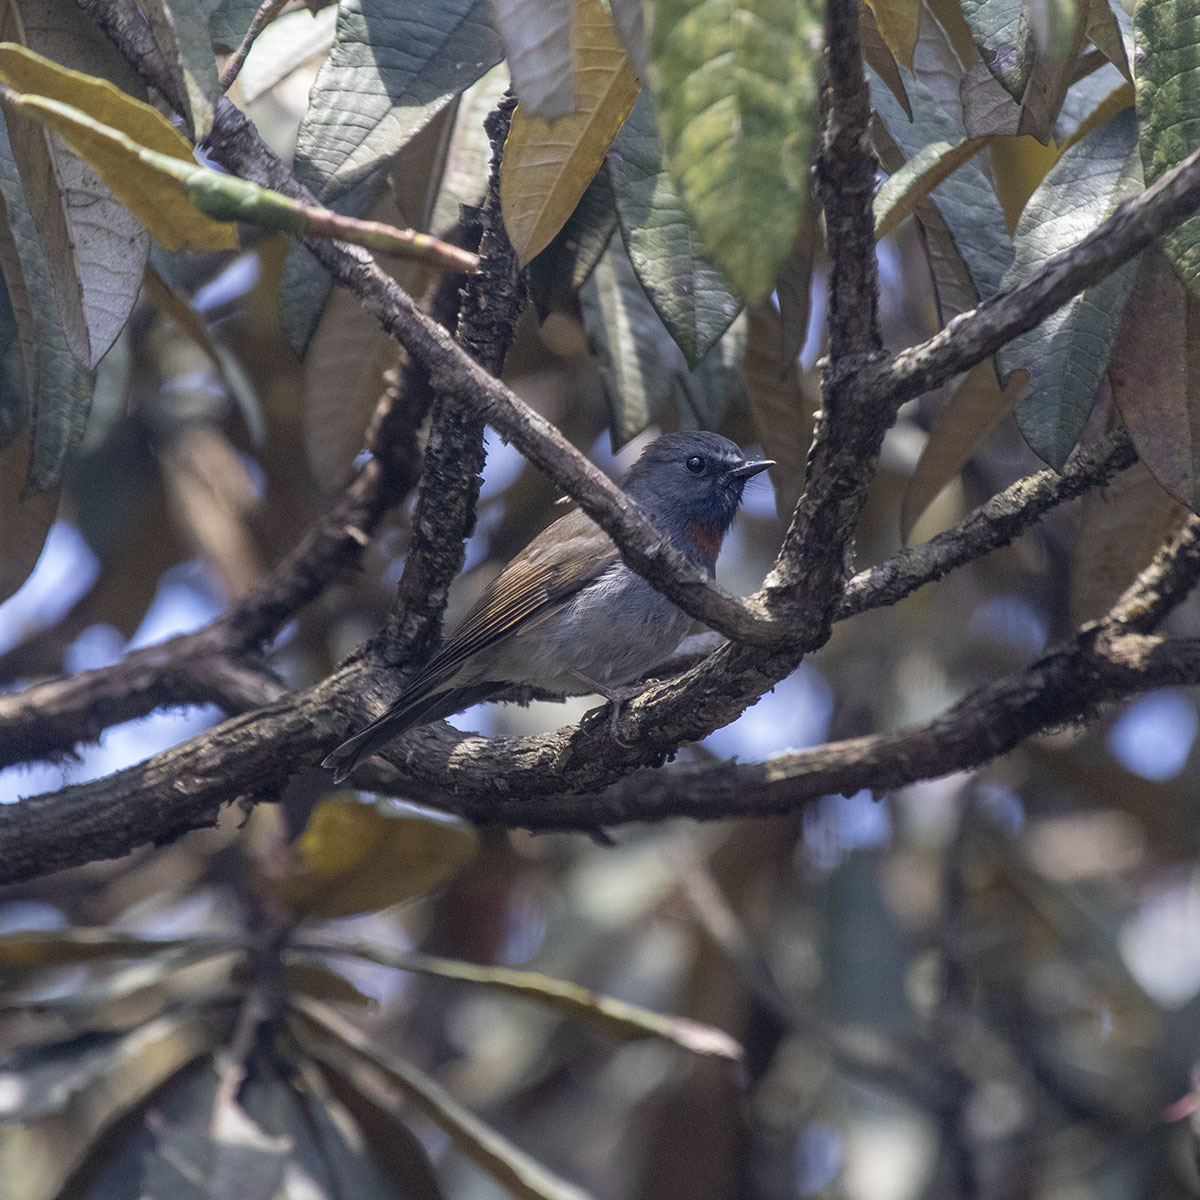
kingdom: Animalia
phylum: Chordata
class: Aves
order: Passeriformes
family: Muscicapidae
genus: Ficedula
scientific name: Ficedula strophiata
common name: Rufous-gorgeted flycatcher
